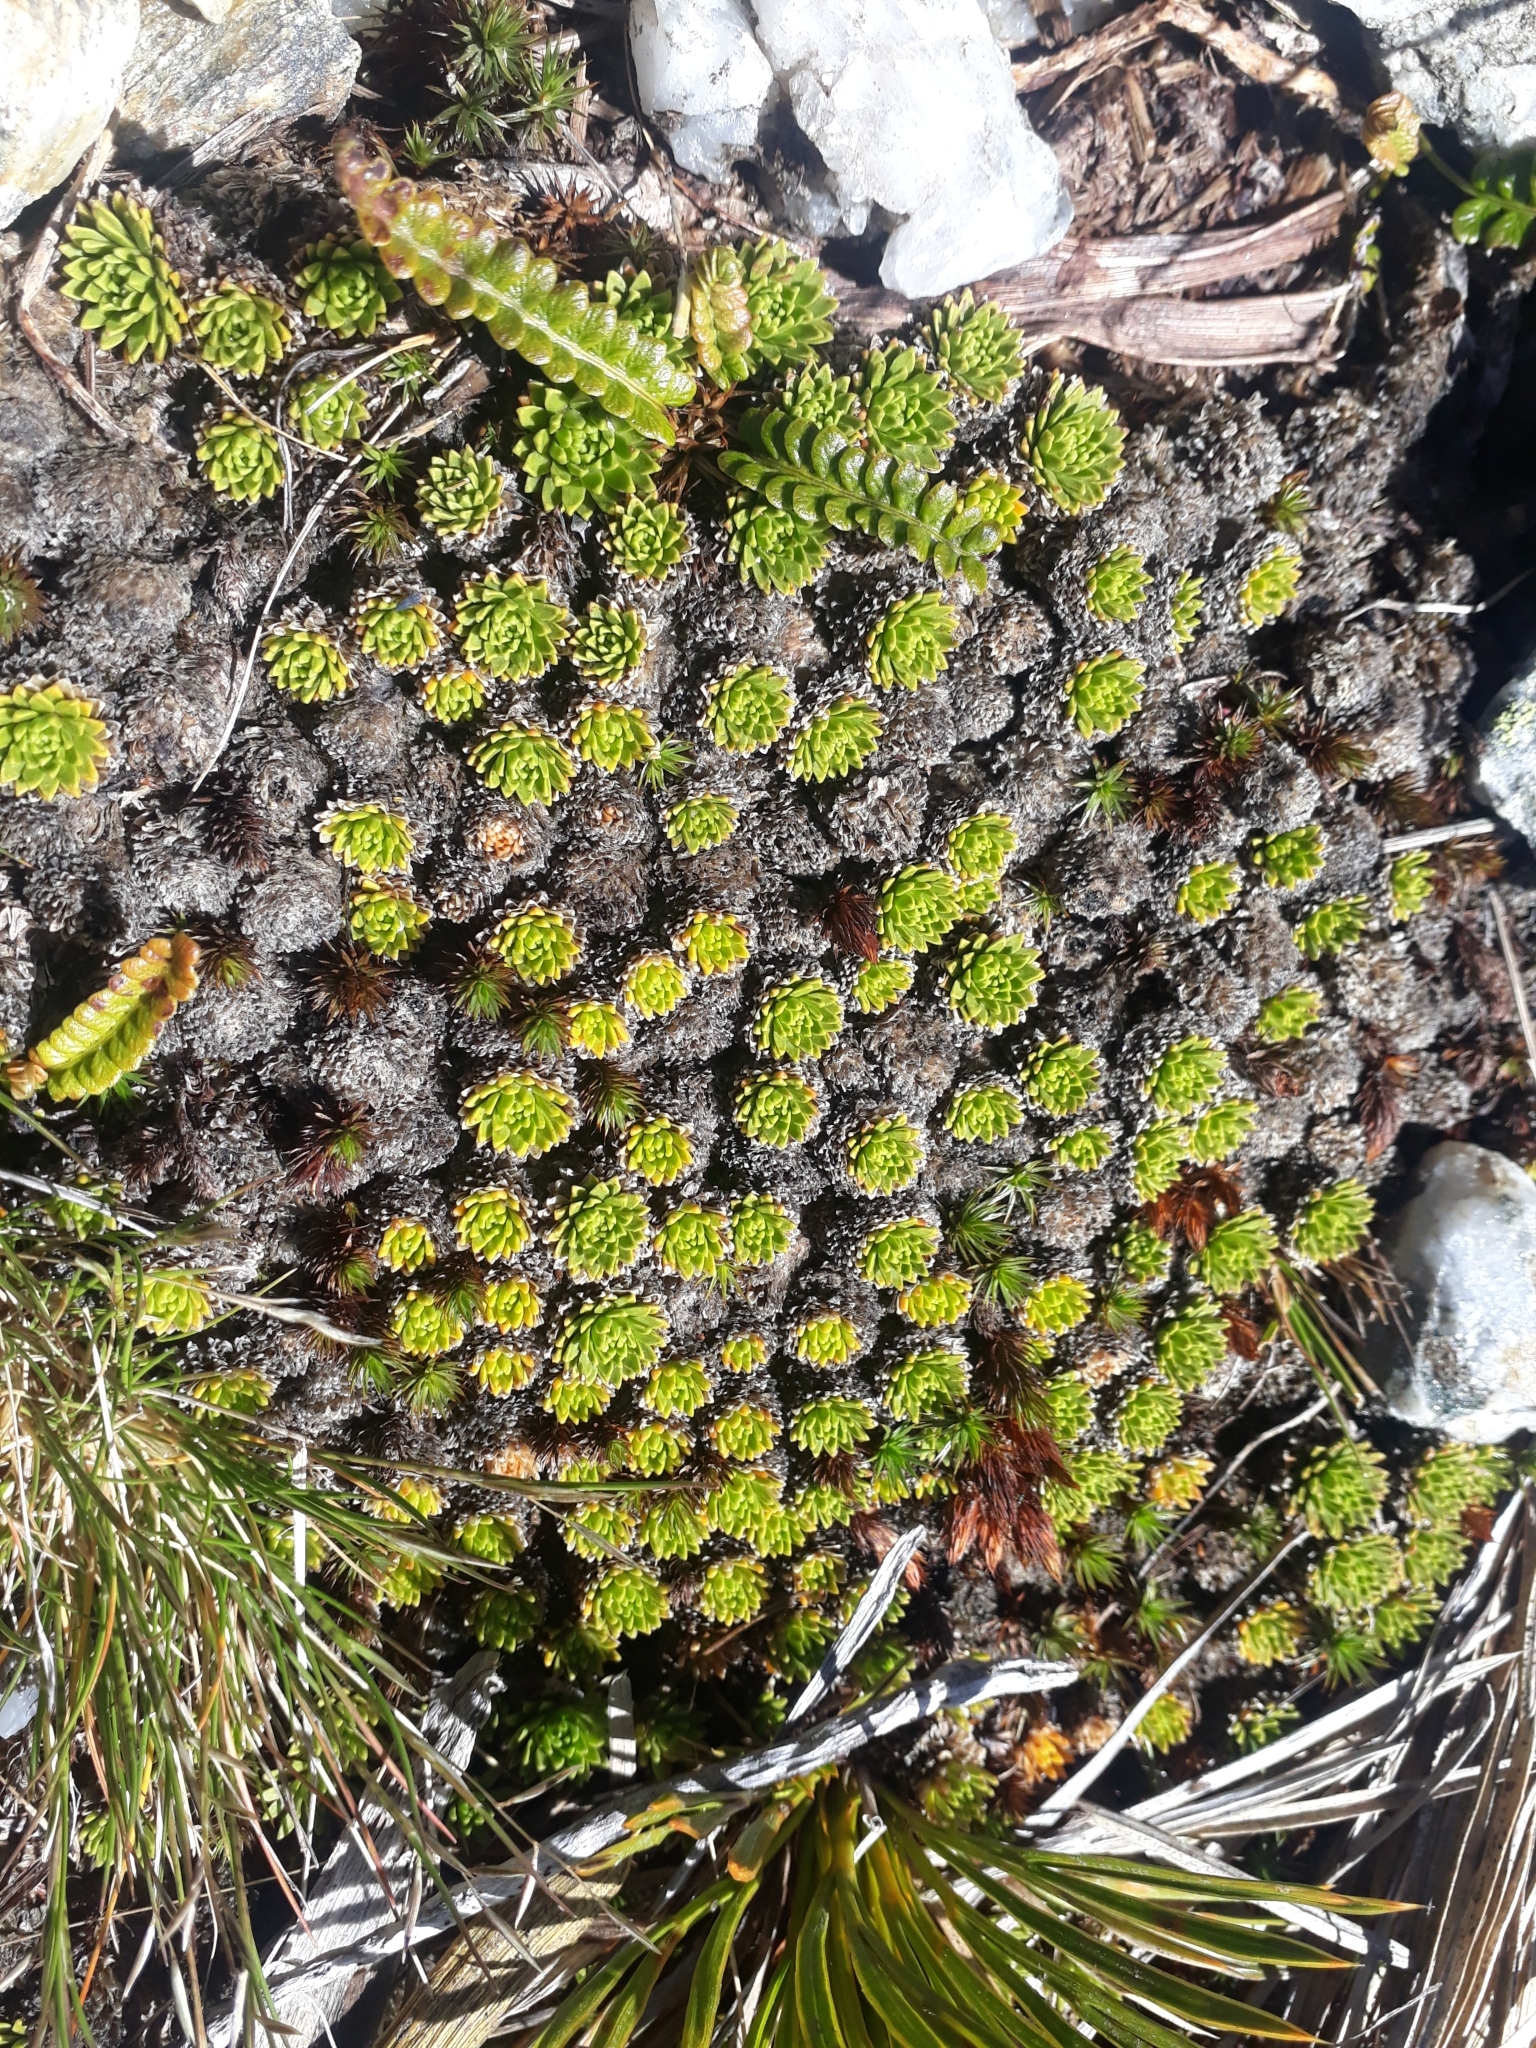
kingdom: Plantae
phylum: Tracheophyta
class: Magnoliopsida
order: Caryophyllales
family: Montiaceae
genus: Hectorella
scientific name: Hectorella caespitosa
